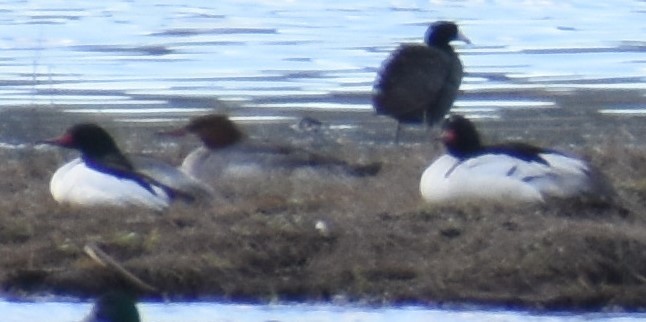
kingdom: Animalia
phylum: Chordata
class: Aves
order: Anseriformes
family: Anatidae
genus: Mergus
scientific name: Mergus merganser
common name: Common merganser
